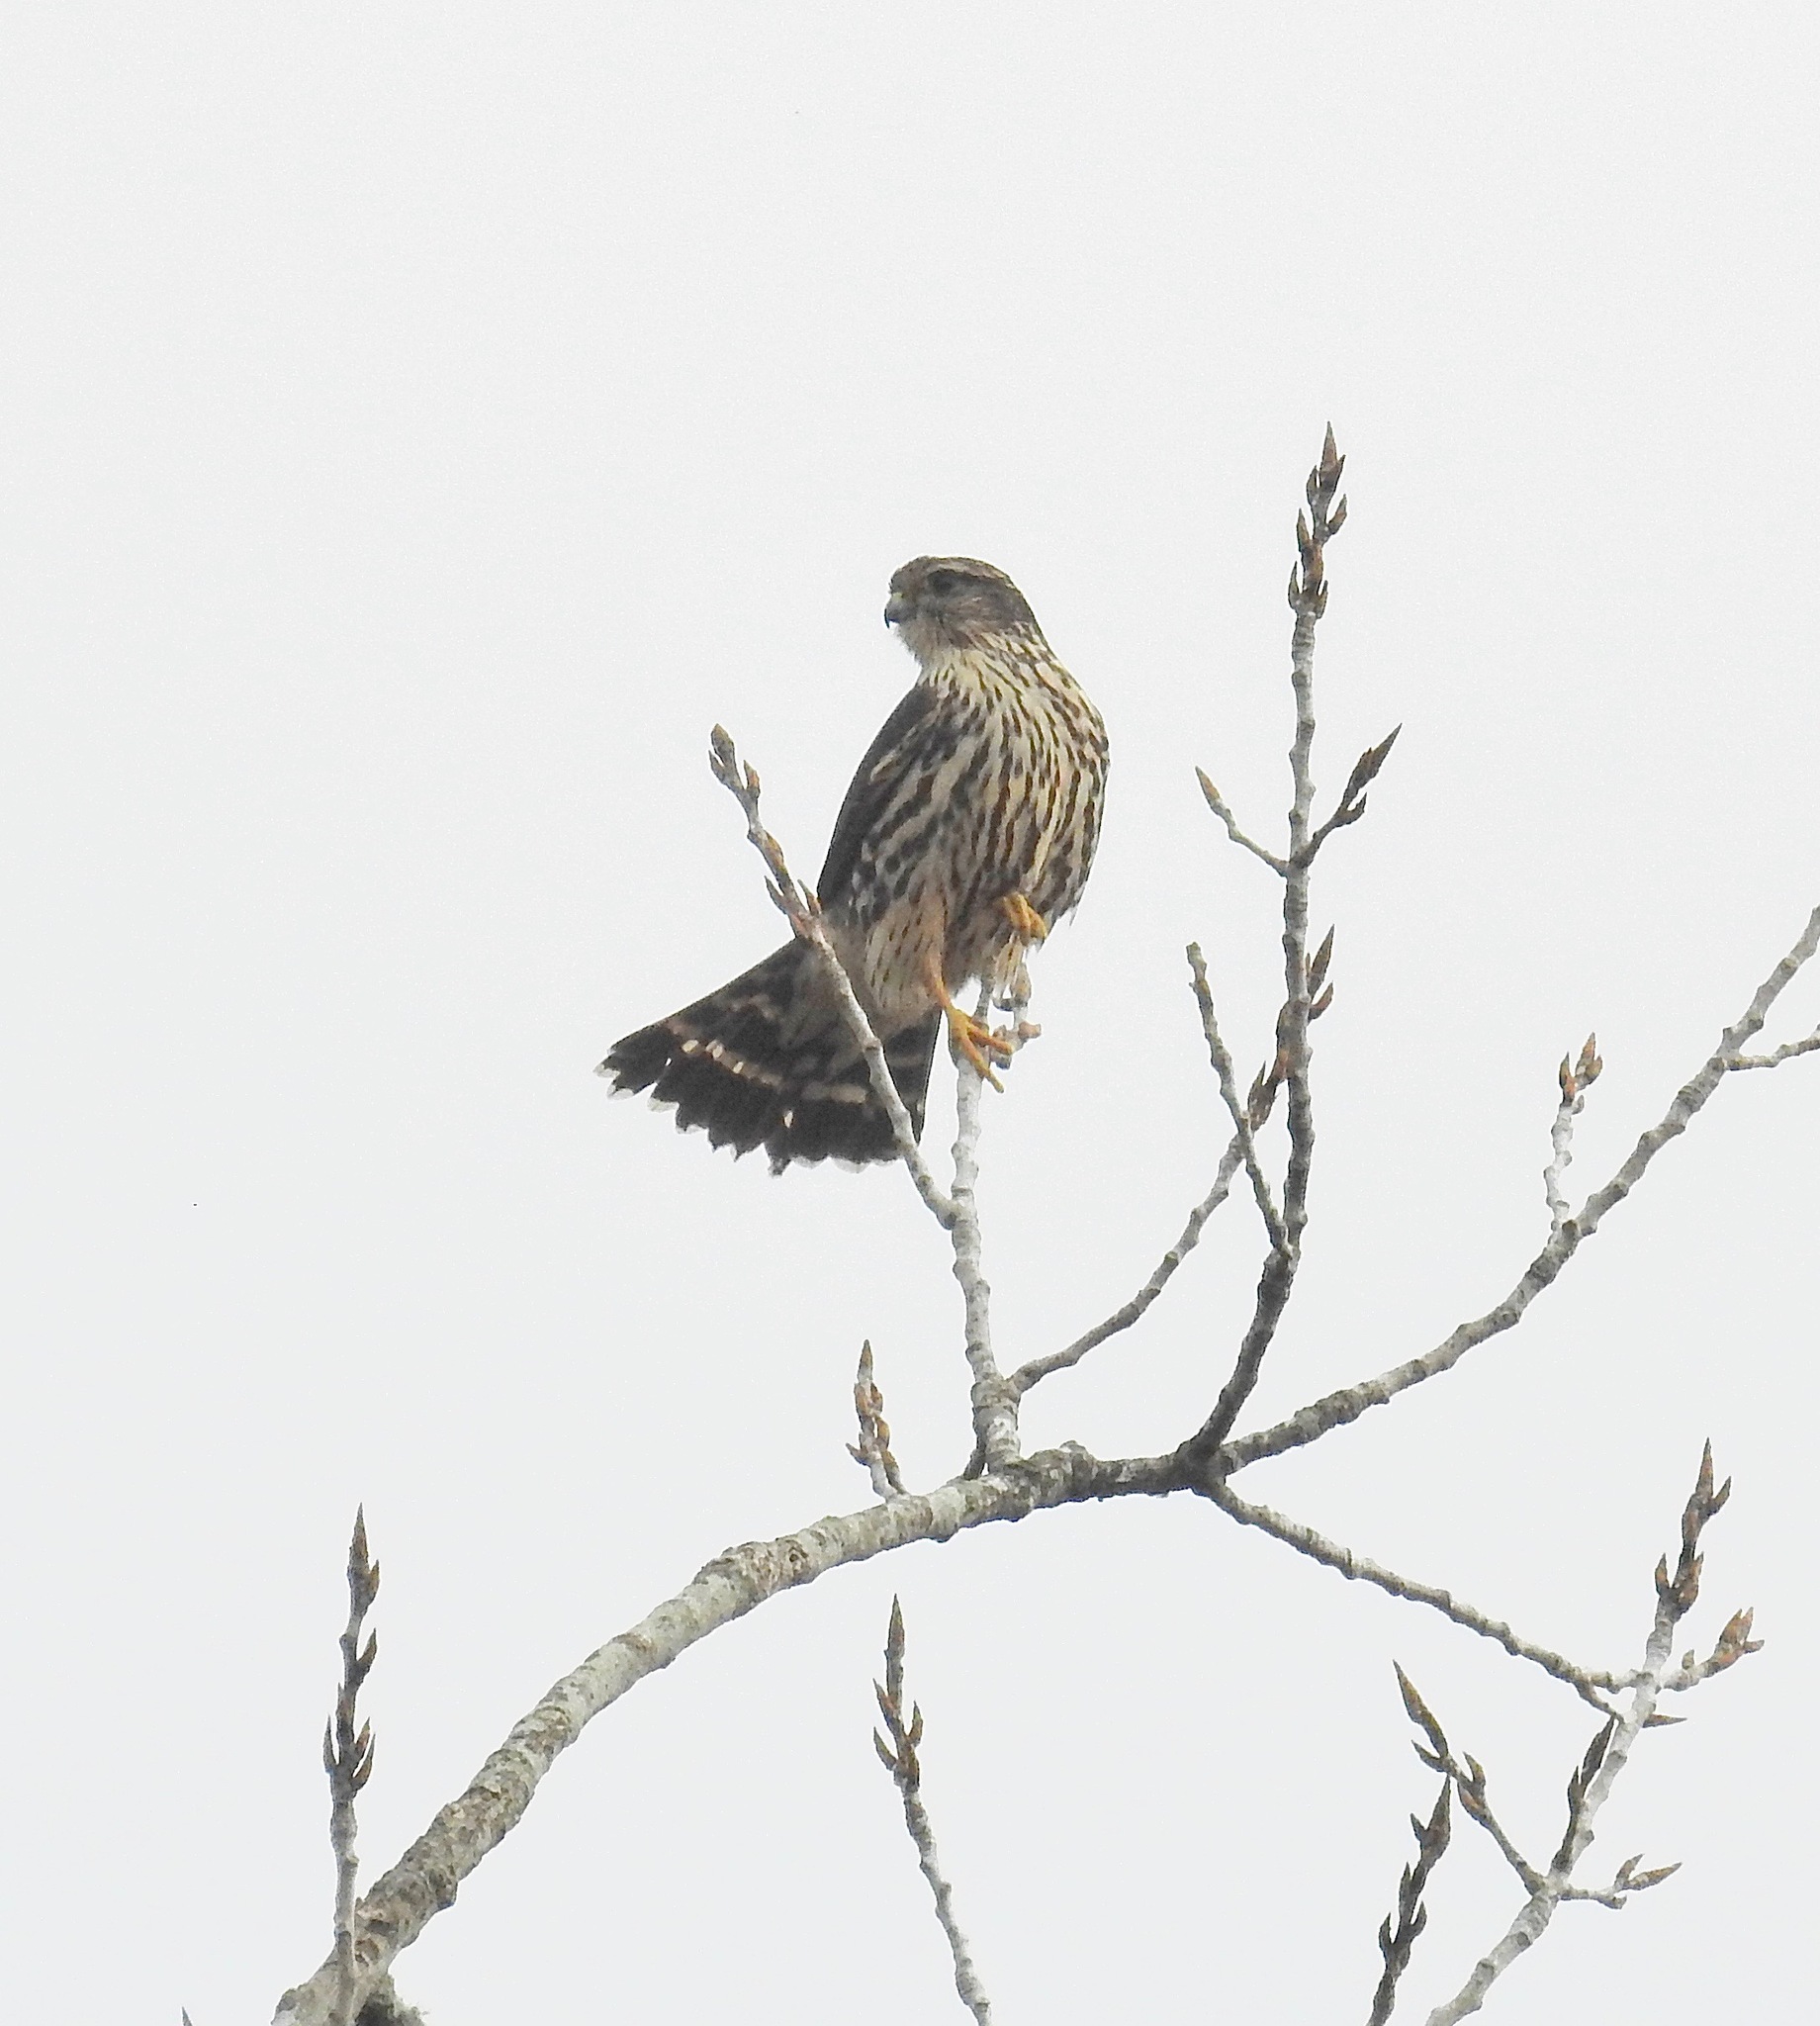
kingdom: Animalia
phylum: Chordata
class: Aves
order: Falconiformes
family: Falconidae
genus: Falco
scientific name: Falco columbarius
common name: Merlin
